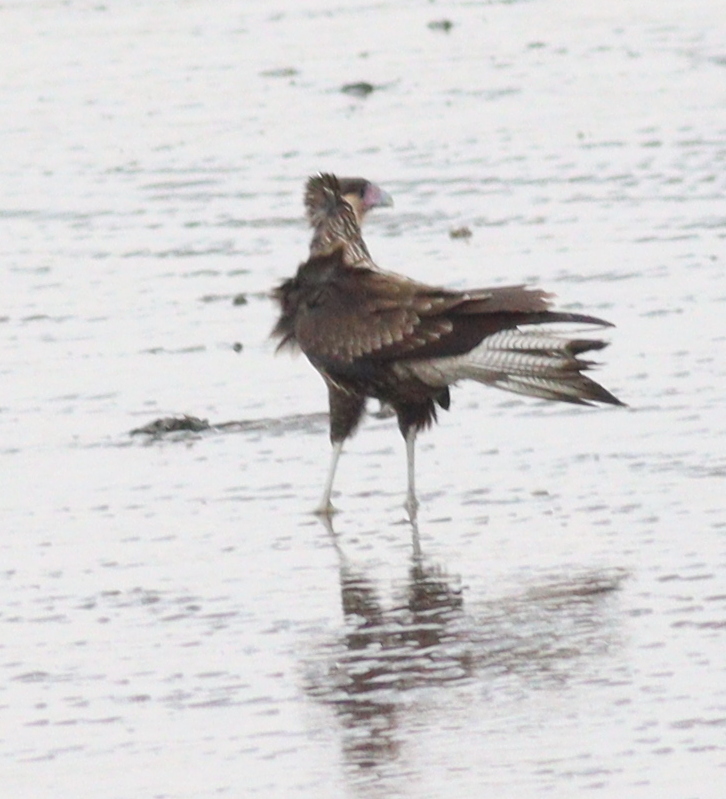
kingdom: Animalia
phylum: Chordata
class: Aves
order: Falconiformes
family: Falconidae
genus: Caracara
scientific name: Caracara plancus
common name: Southern caracara
